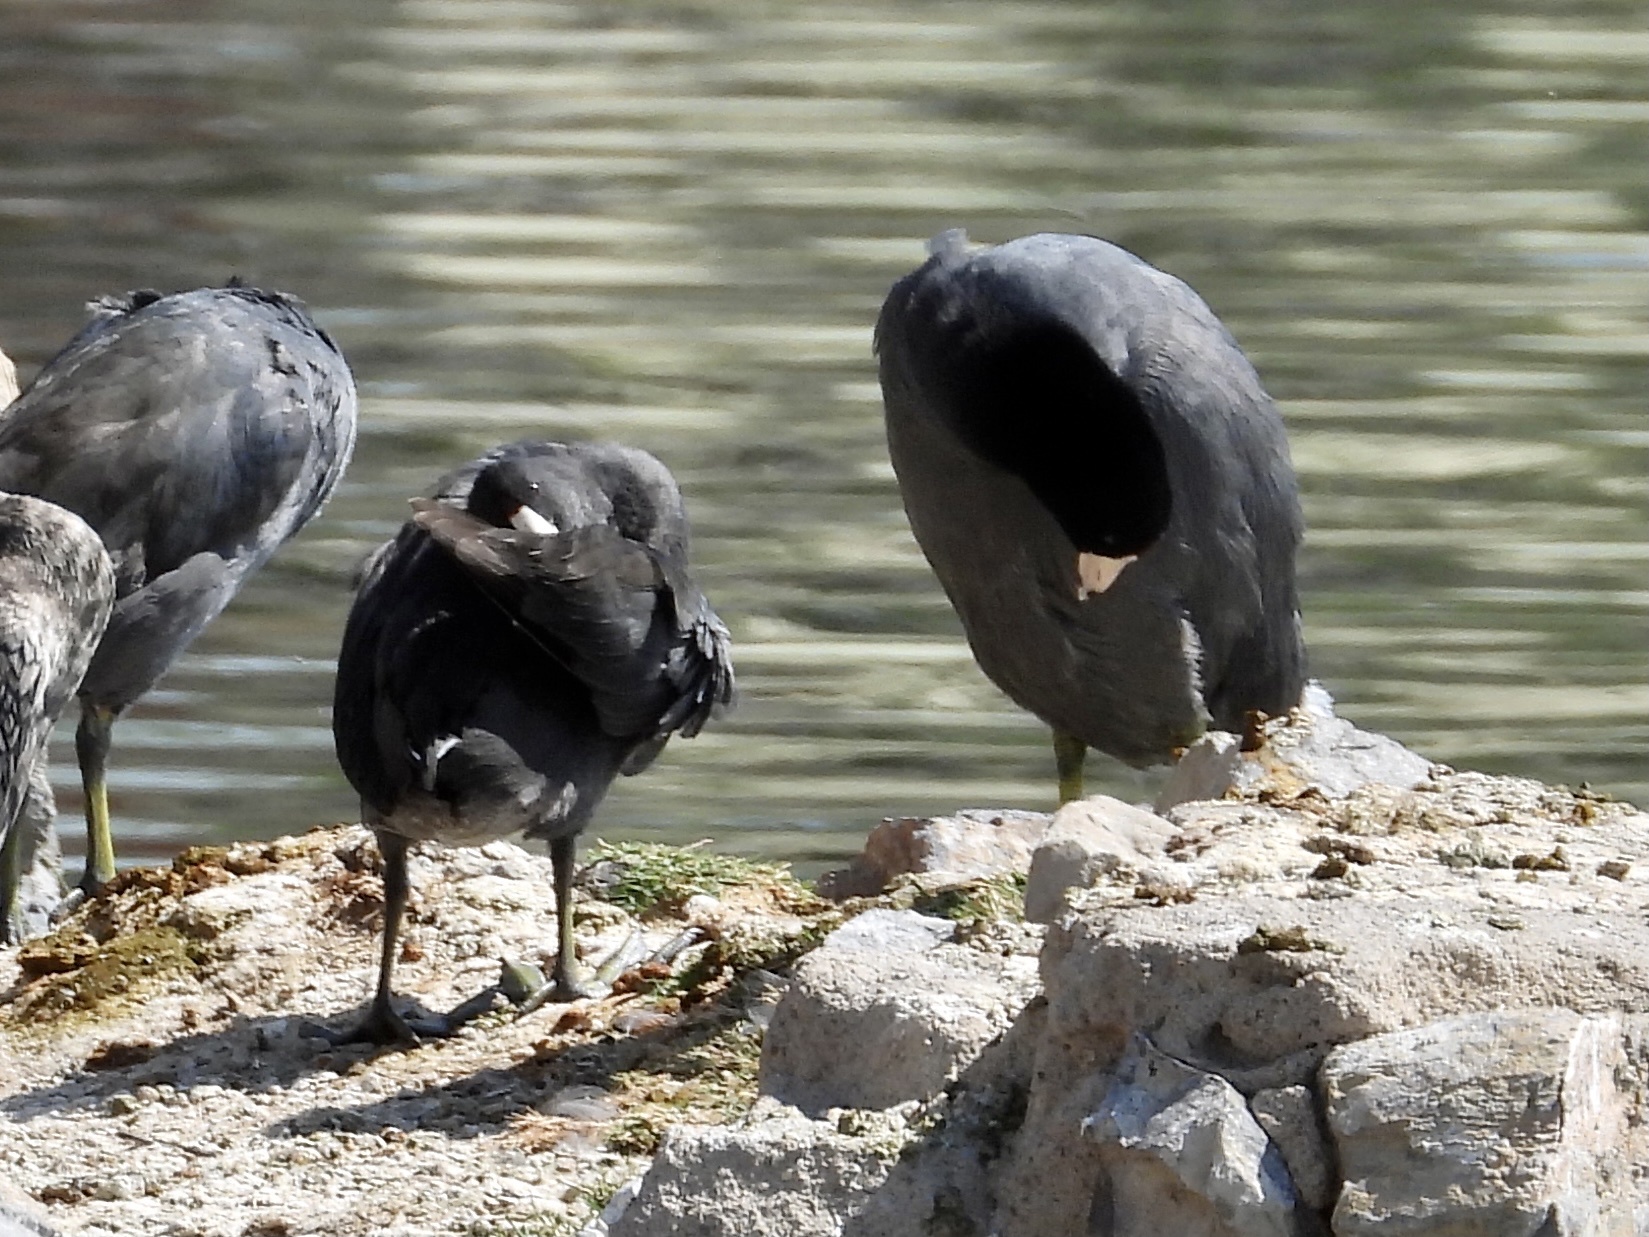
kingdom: Animalia
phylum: Chordata
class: Aves
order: Gruiformes
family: Rallidae
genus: Fulica
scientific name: Fulica americana
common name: American coot
